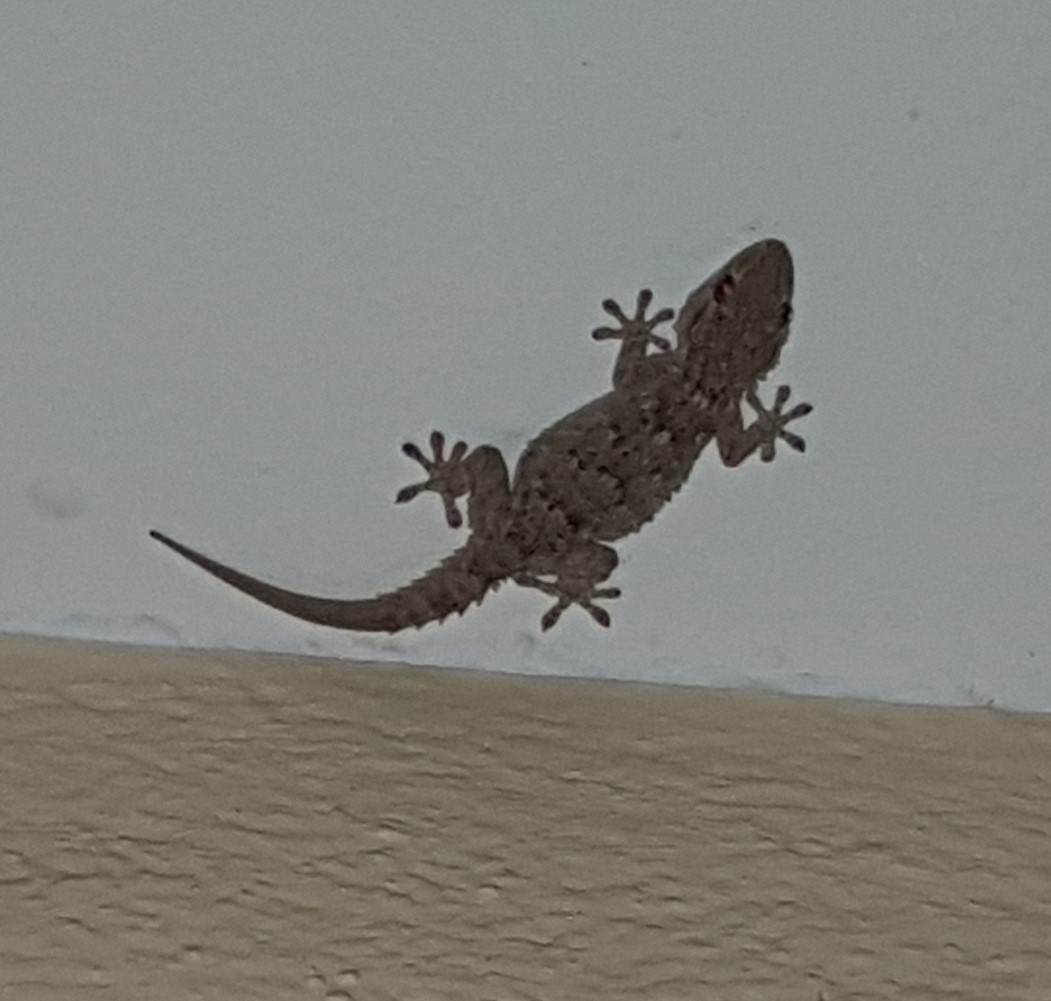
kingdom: Animalia
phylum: Chordata
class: Squamata
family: Phyllodactylidae
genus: Tarentola
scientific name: Tarentola mauritanica
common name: Moorish gecko
